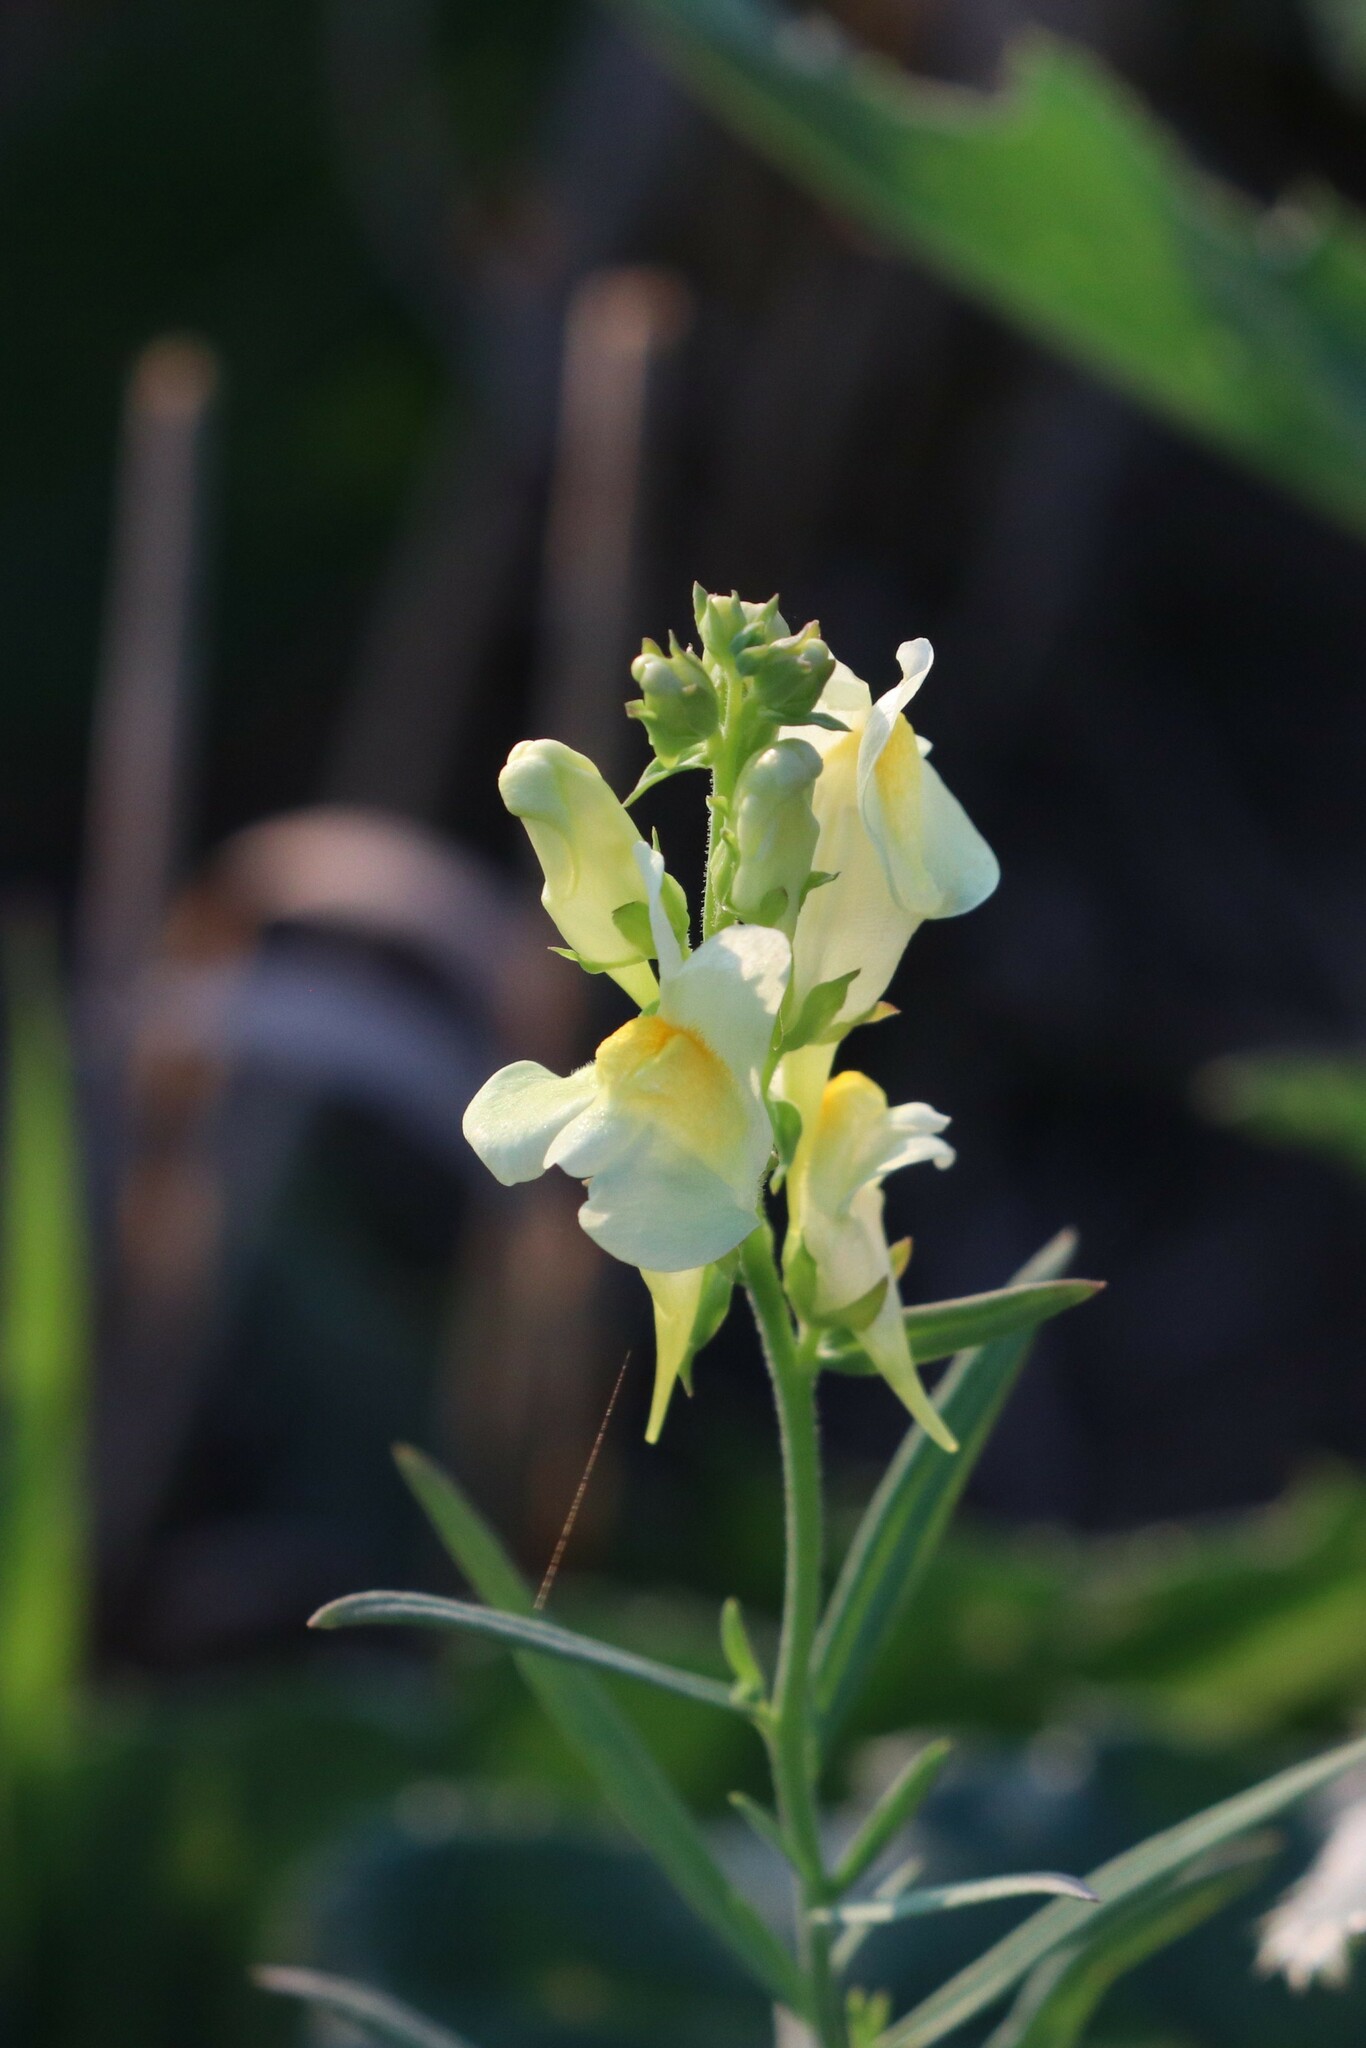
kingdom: Plantae
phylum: Tracheophyta
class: Magnoliopsida
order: Lamiales
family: Plantaginaceae
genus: Linaria
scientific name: Linaria vulgaris
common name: Butter and eggs
